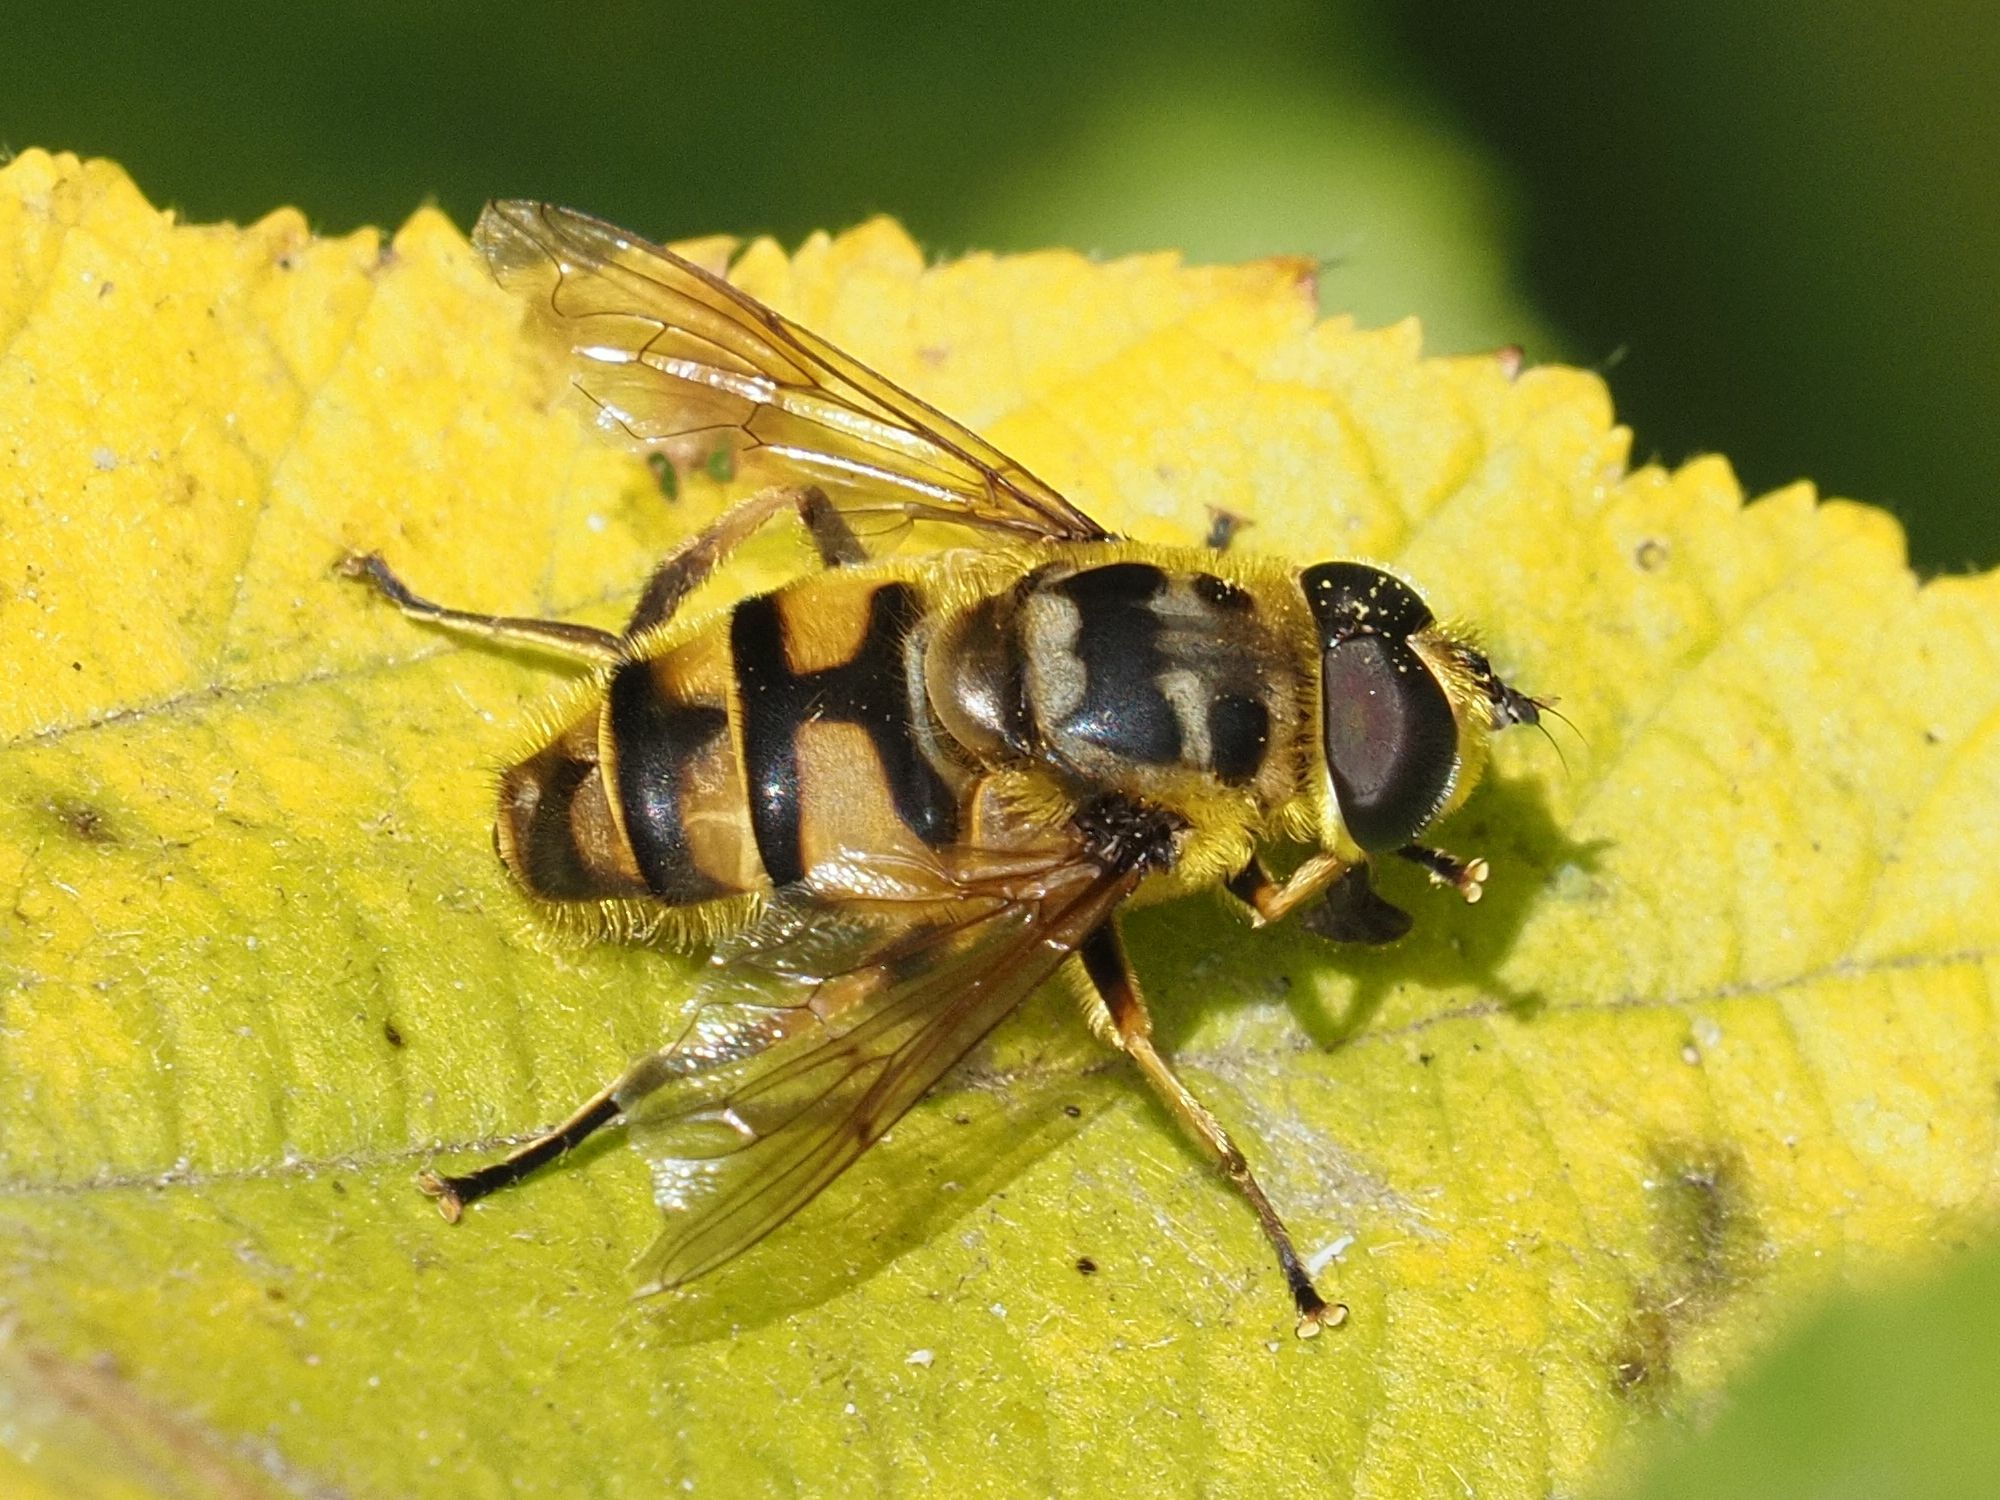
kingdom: Animalia
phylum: Arthropoda
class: Insecta
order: Diptera
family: Syrphidae
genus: Myathropa
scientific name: Myathropa florea
